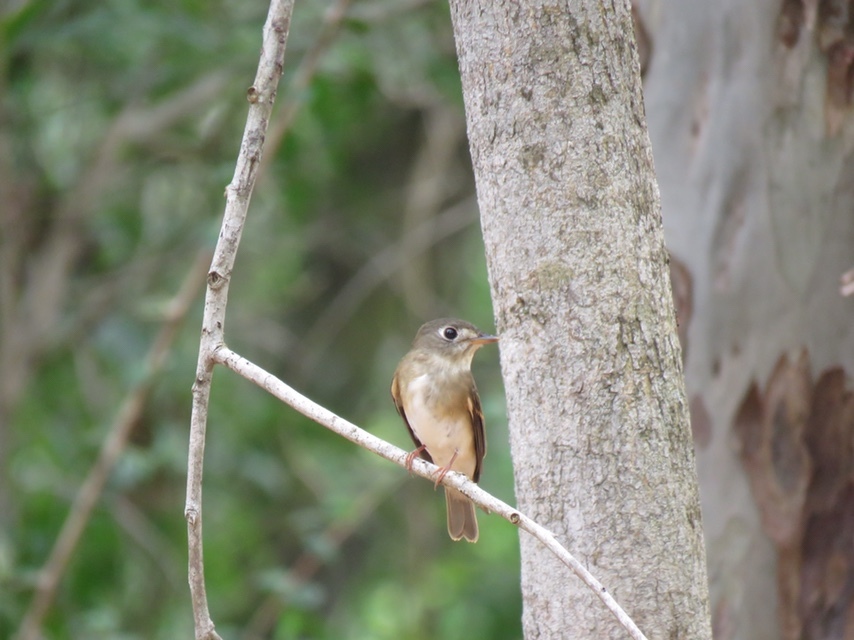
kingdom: Animalia
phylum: Chordata
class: Aves
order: Passeriformes
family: Muscicapidae
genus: Muscicapa
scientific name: Muscicapa muttui
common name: Brown-breasted flycatcher
